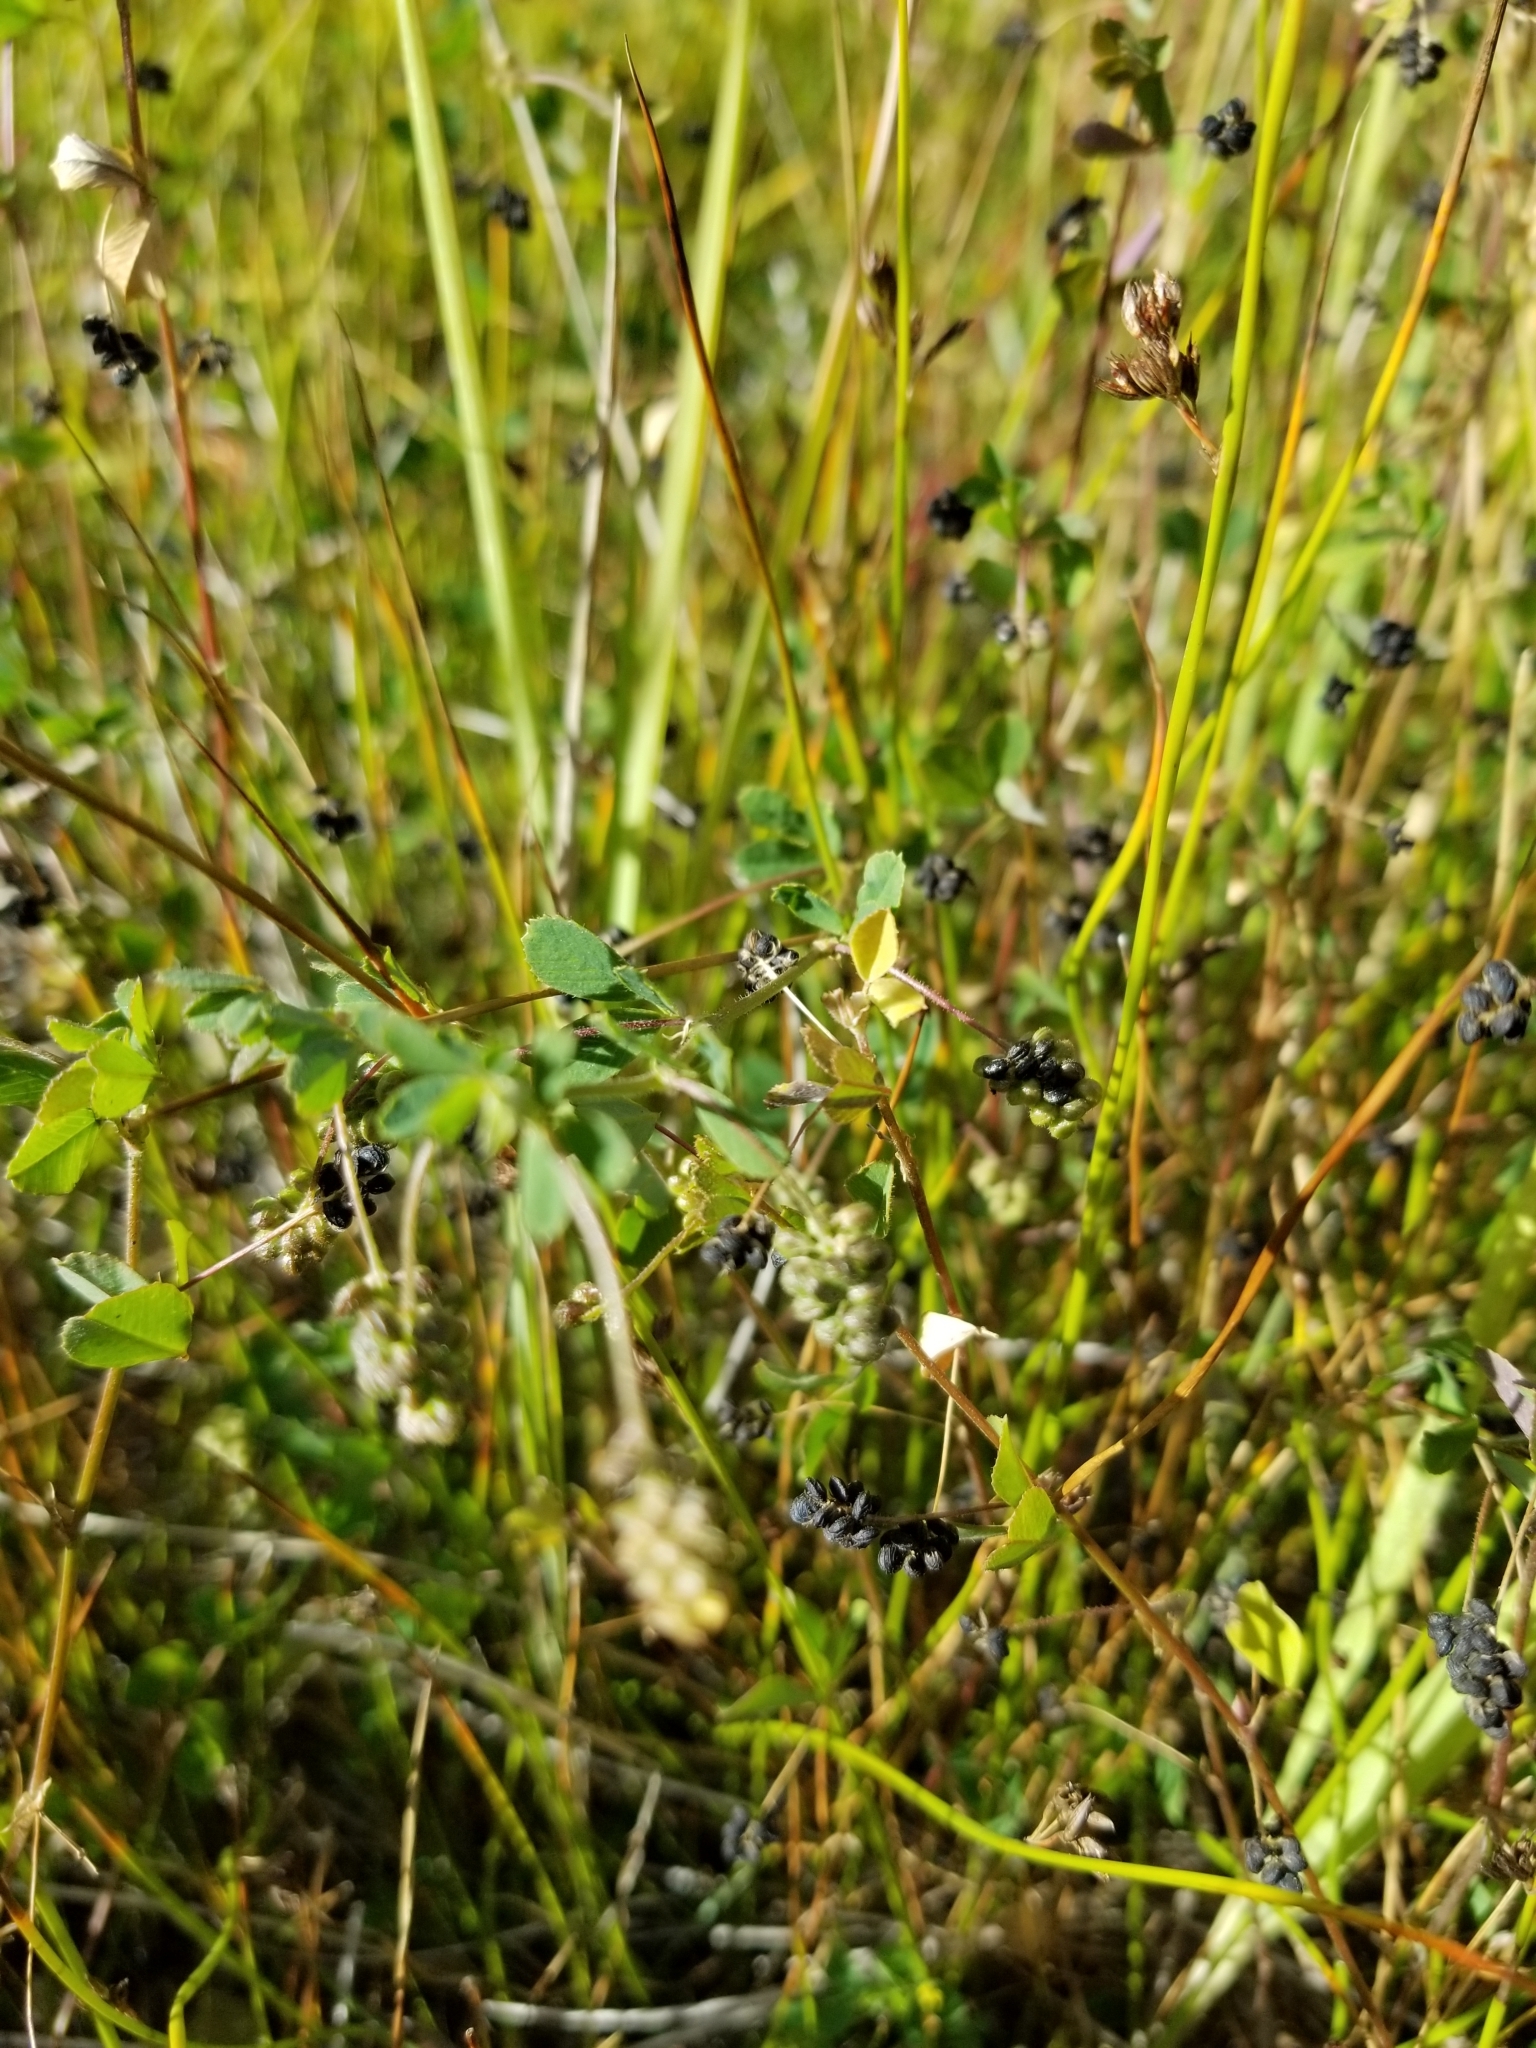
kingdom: Plantae
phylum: Tracheophyta
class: Magnoliopsida
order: Fabales
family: Fabaceae
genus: Medicago
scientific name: Medicago lupulina
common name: Black medick
